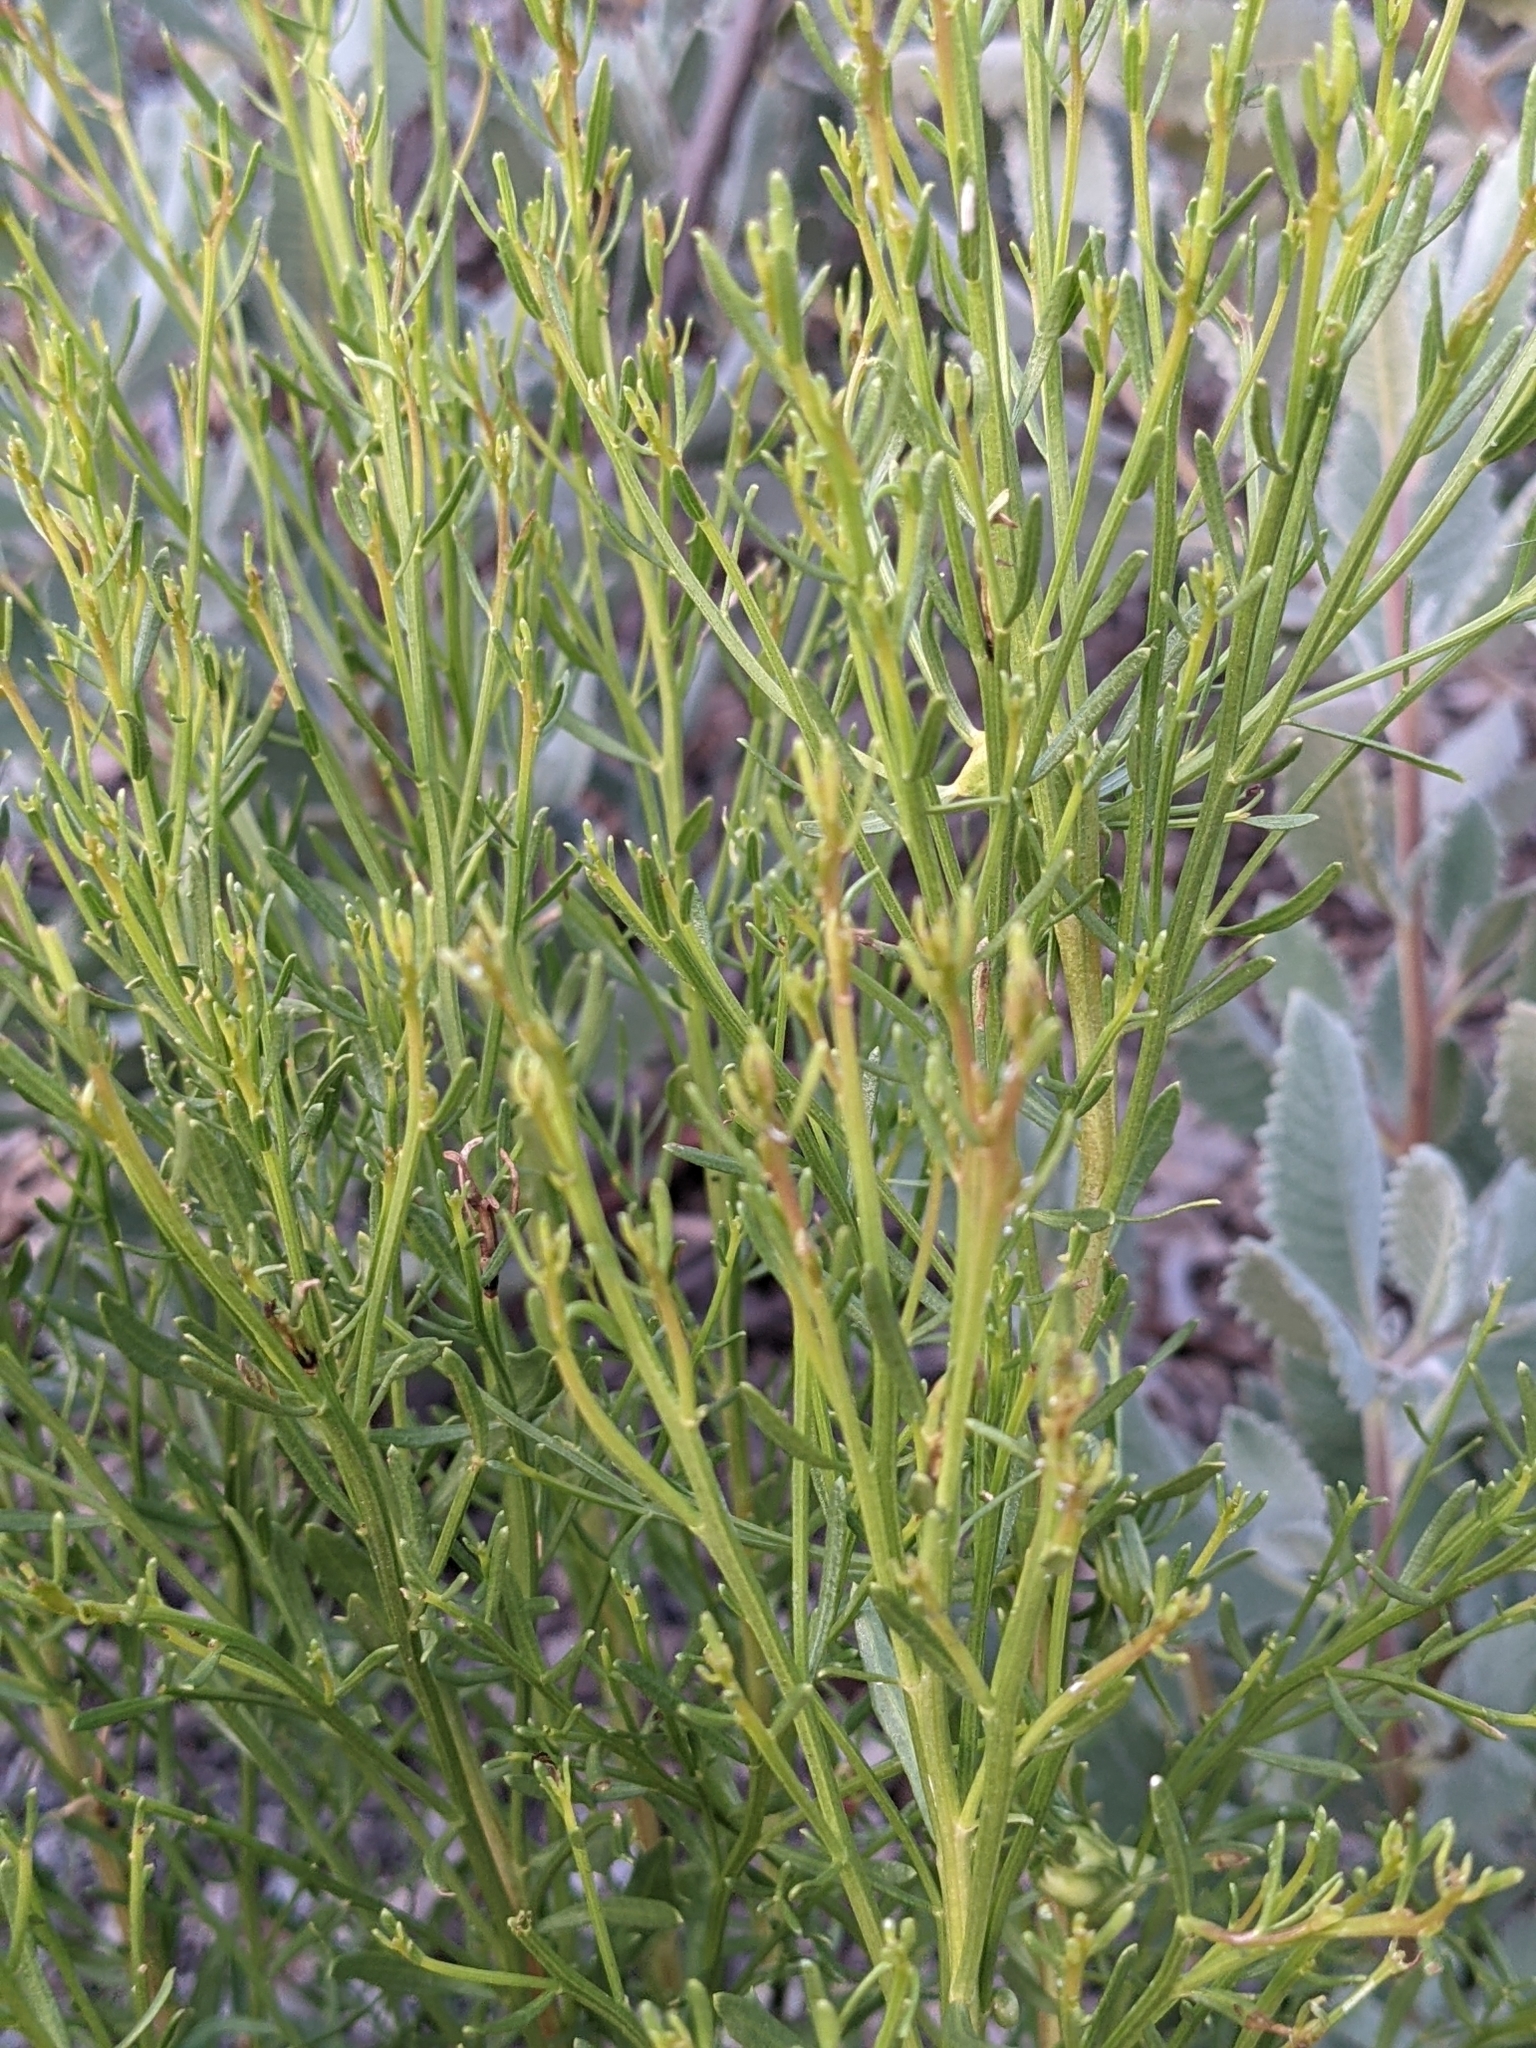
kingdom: Plantae
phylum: Tracheophyta
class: Magnoliopsida
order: Asterales
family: Asteraceae
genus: Baccharis
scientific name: Baccharis sarothroides
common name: Desert-broom
